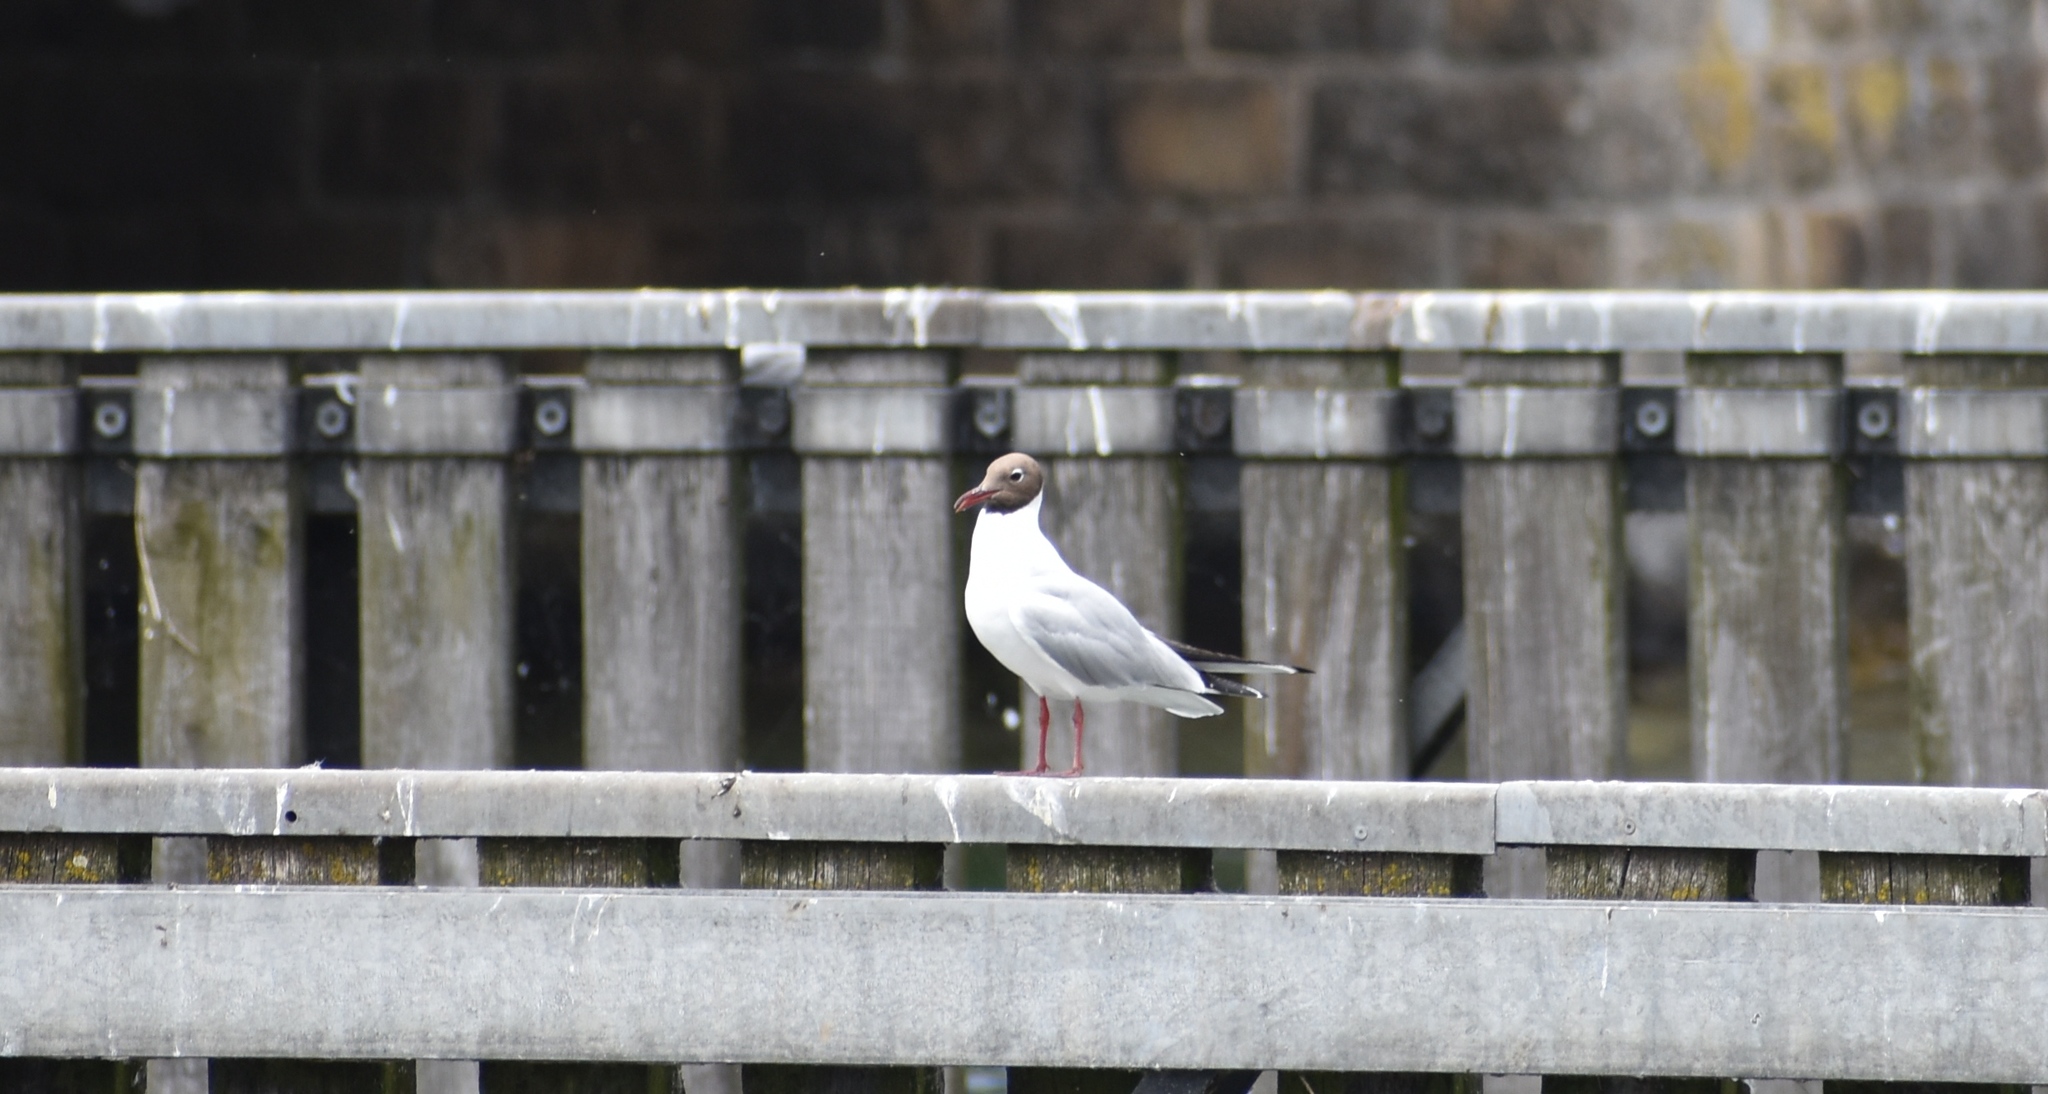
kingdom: Animalia
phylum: Chordata
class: Aves
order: Charadriiformes
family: Laridae
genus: Chroicocephalus
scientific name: Chroicocephalus ridibundus
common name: Black-headed gull
